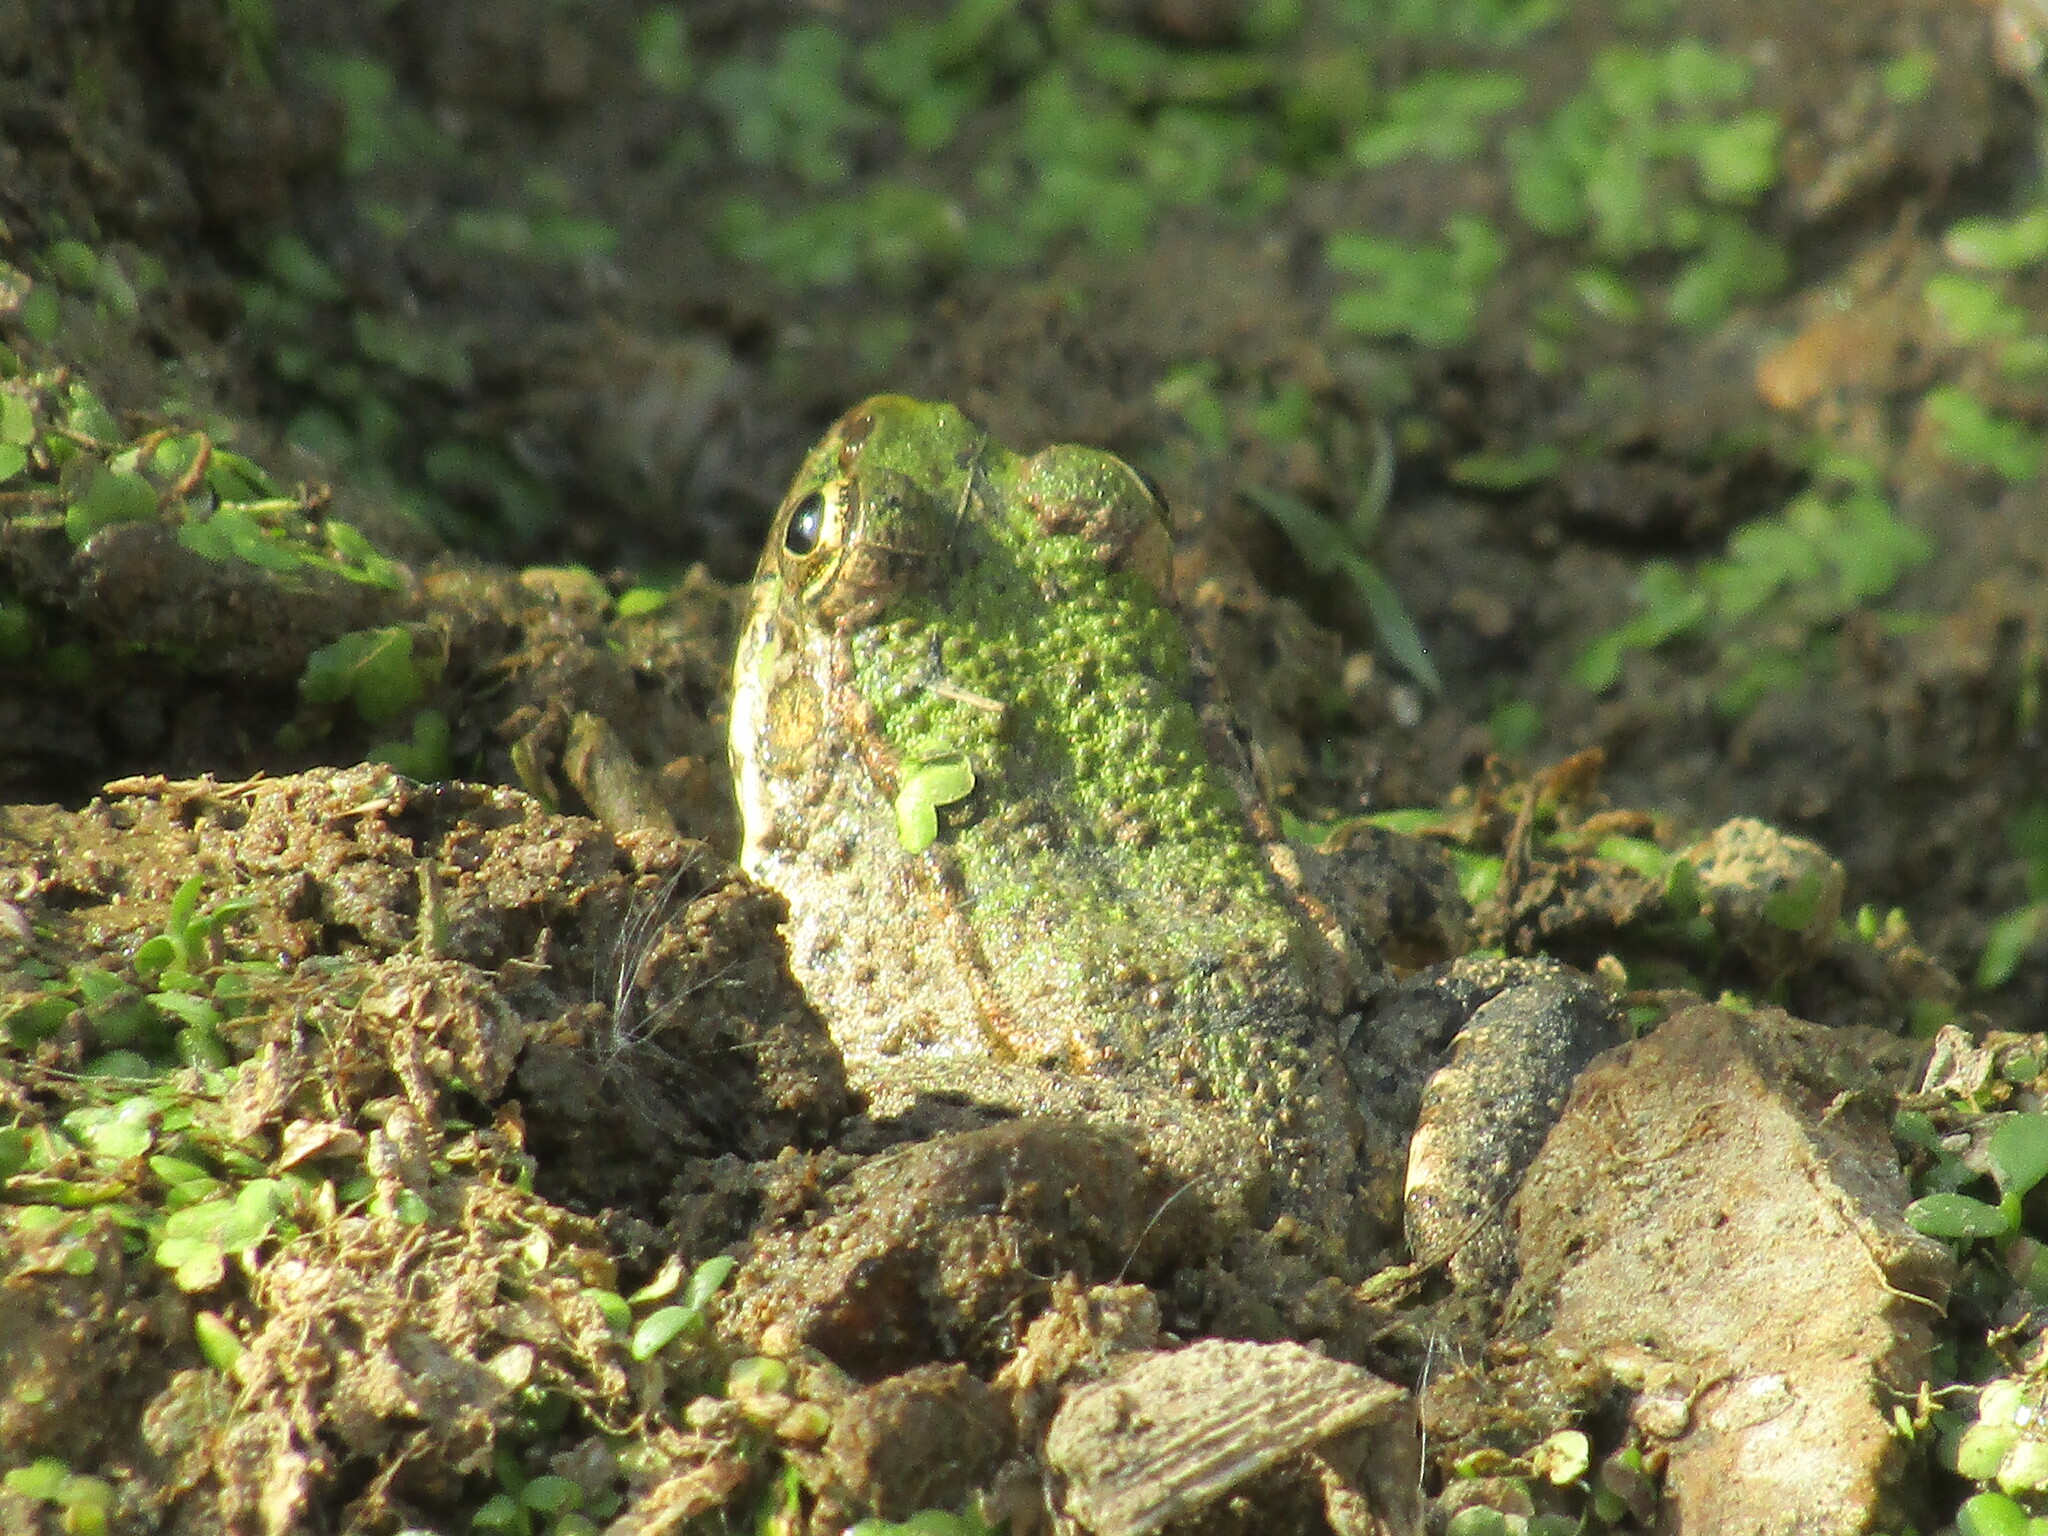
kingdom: Animalia
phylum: Chordata
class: Amphibia
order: Anura
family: Ranidae
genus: Pelophylax
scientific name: Pelophylax ridibundus
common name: Marsh frog
